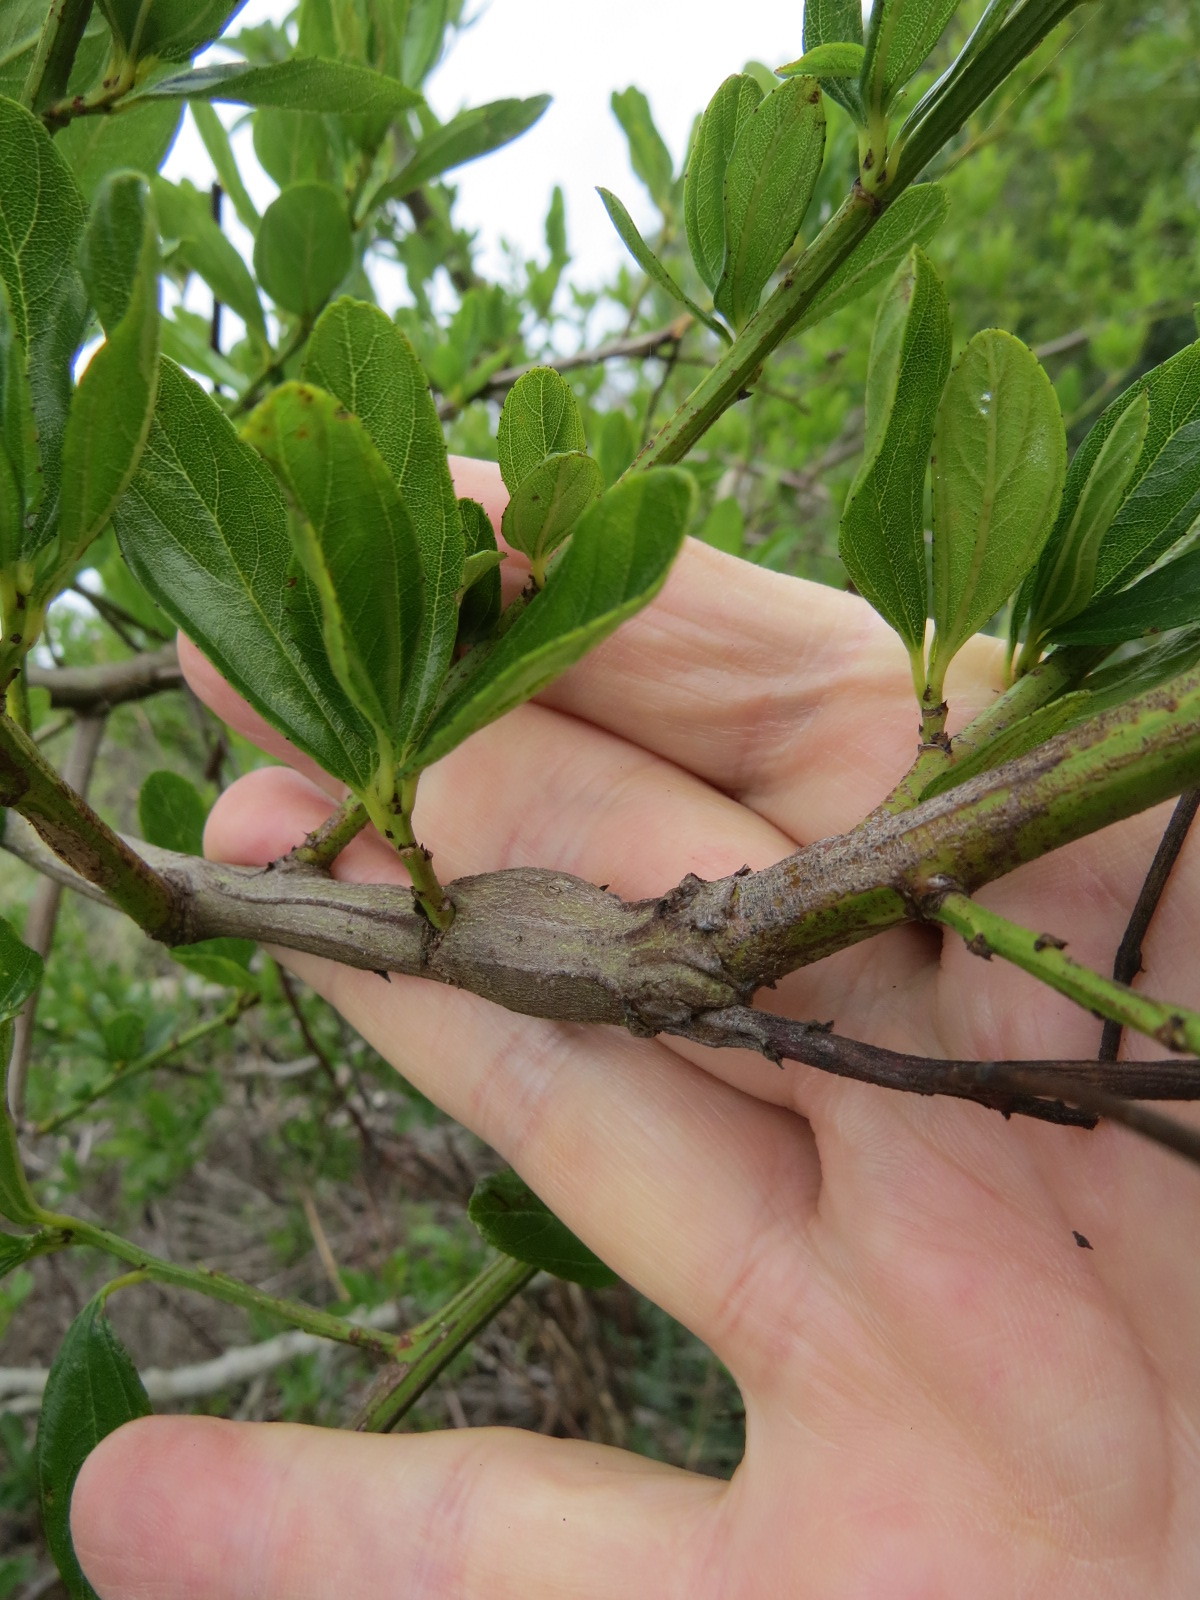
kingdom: Animalia
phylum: Arthropoda
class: Insecta
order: Lepidoptera
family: Cosmopterigidae
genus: Periploca
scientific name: Periploca ceanothiella
